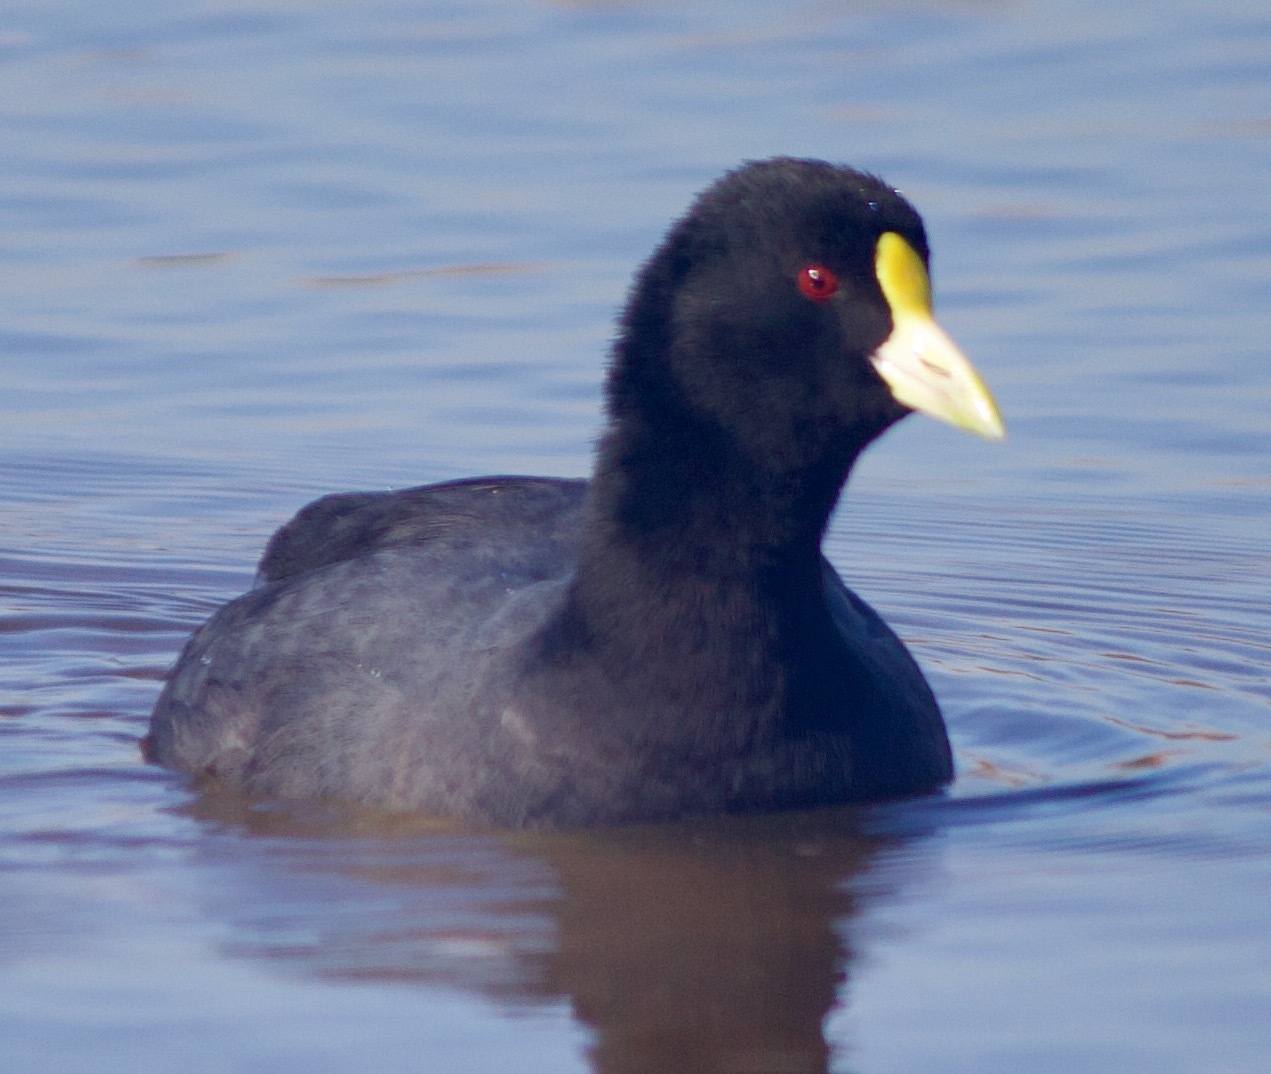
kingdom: Animalia
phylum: Chordata
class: Aves
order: Gruiformes
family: Rallidae
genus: Fulica
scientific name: Fulica leucoptera
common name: White-winged coot
